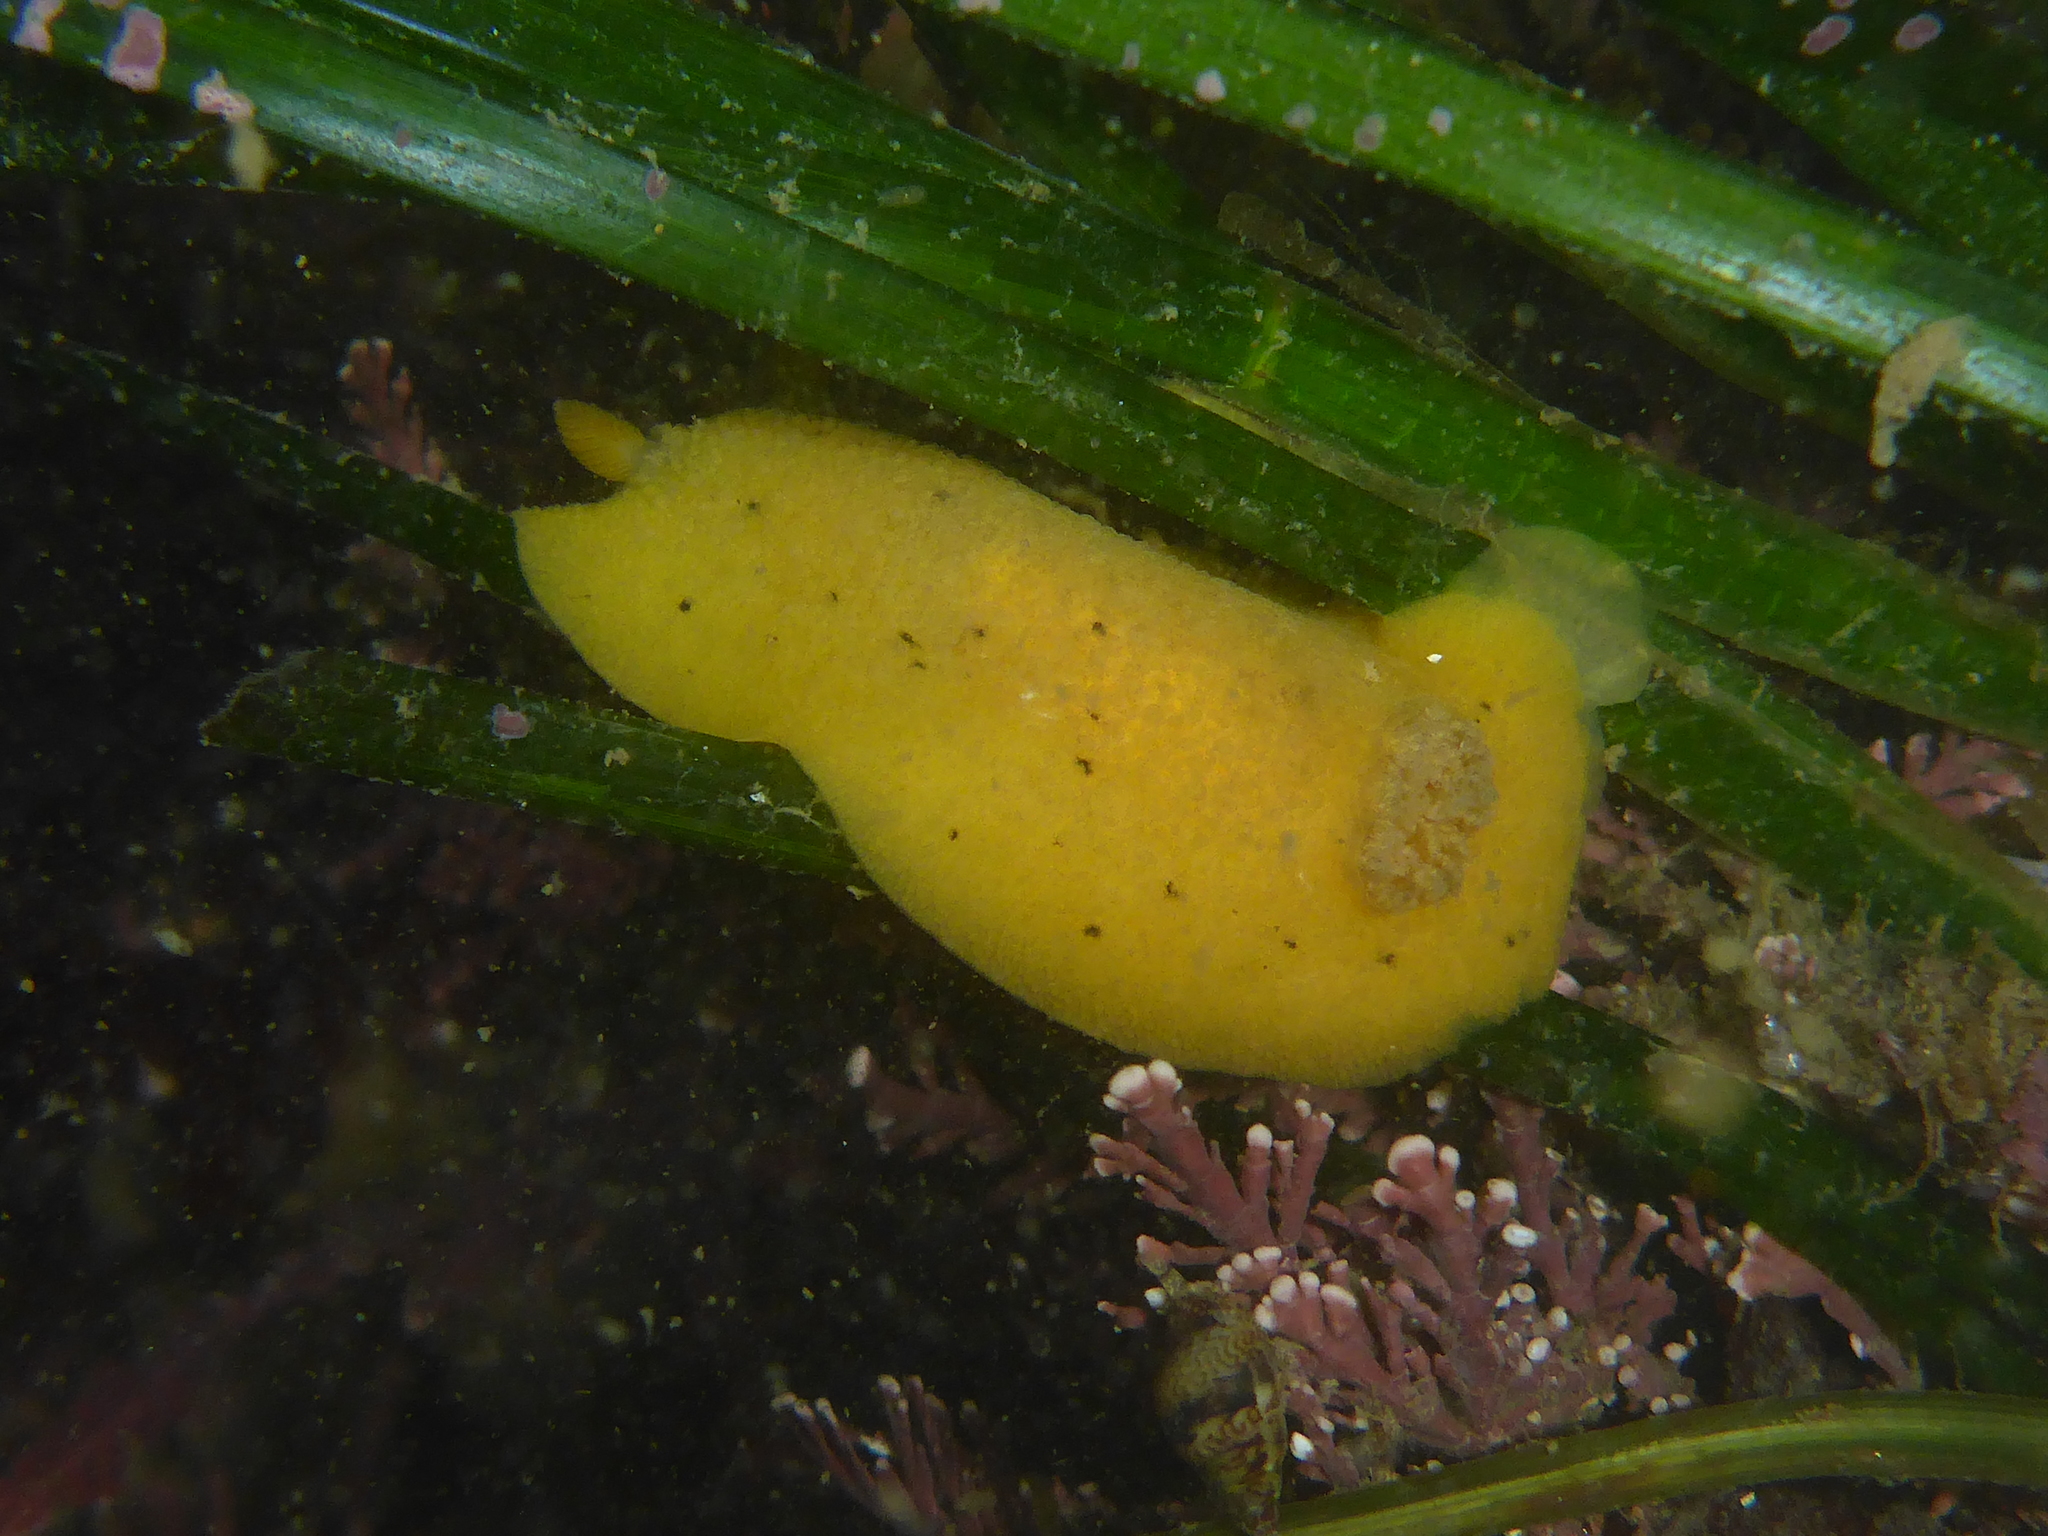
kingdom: Animalia
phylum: Mollusca
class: Gastropoda
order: Nudibranchia
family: Discodorididae
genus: Geitodoris
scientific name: Geitodoris heathi
